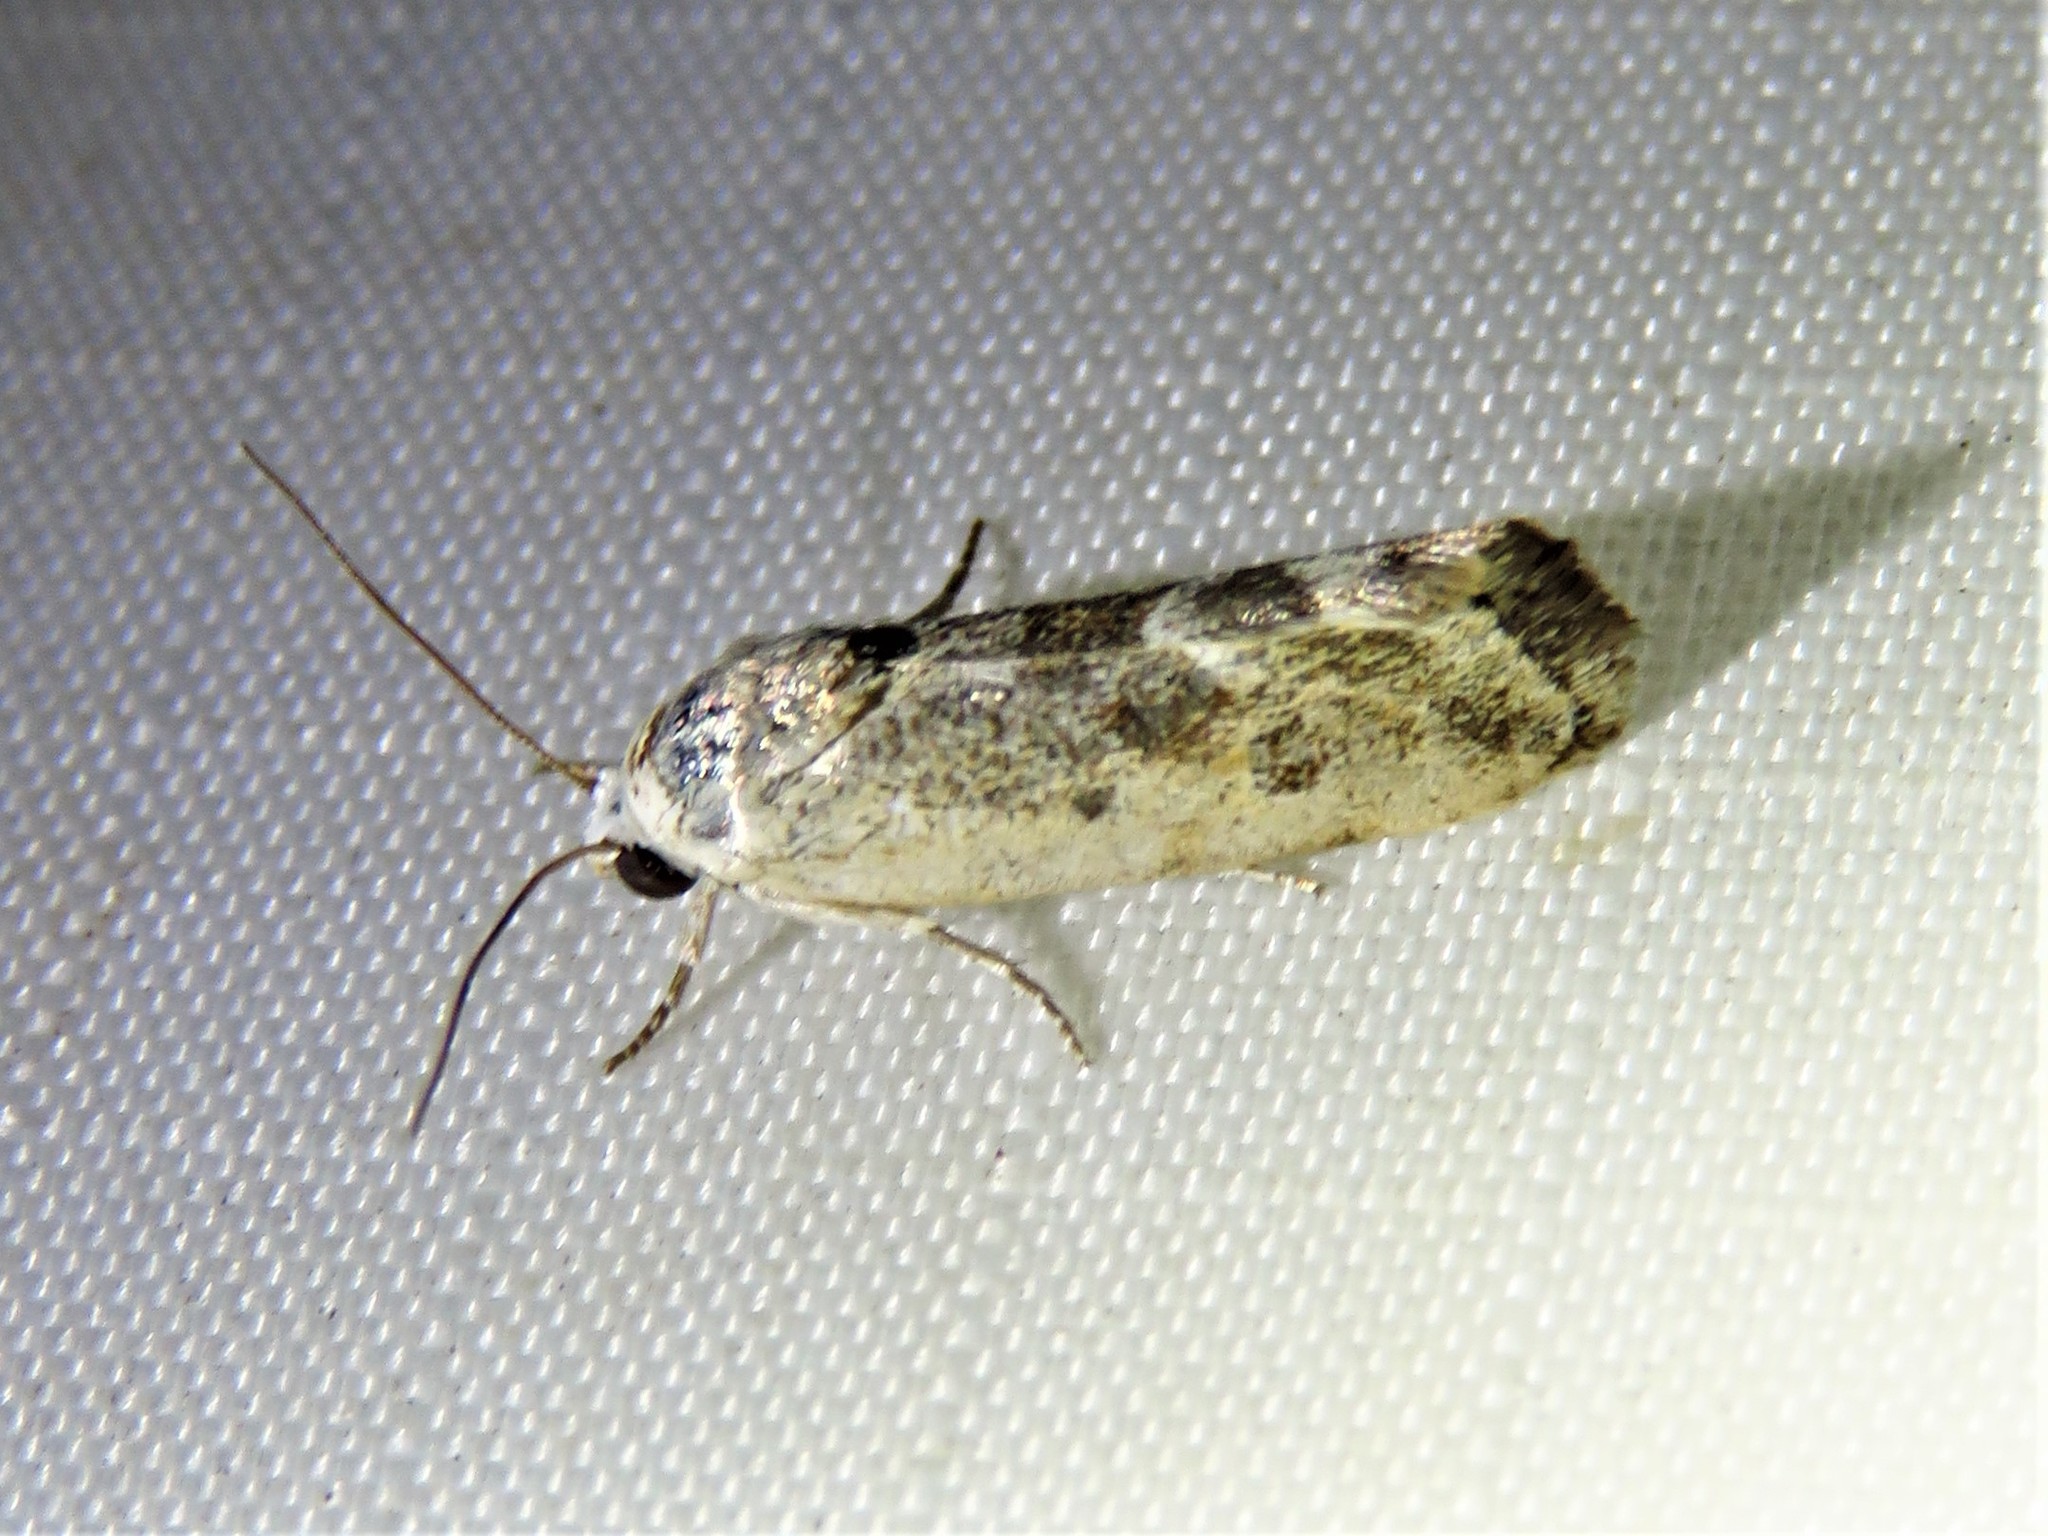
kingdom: Animalia
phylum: Arthropoda
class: Insecta
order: Lepidoptera
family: Noctuidae
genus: Acontia
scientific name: Acontia fasciatella
